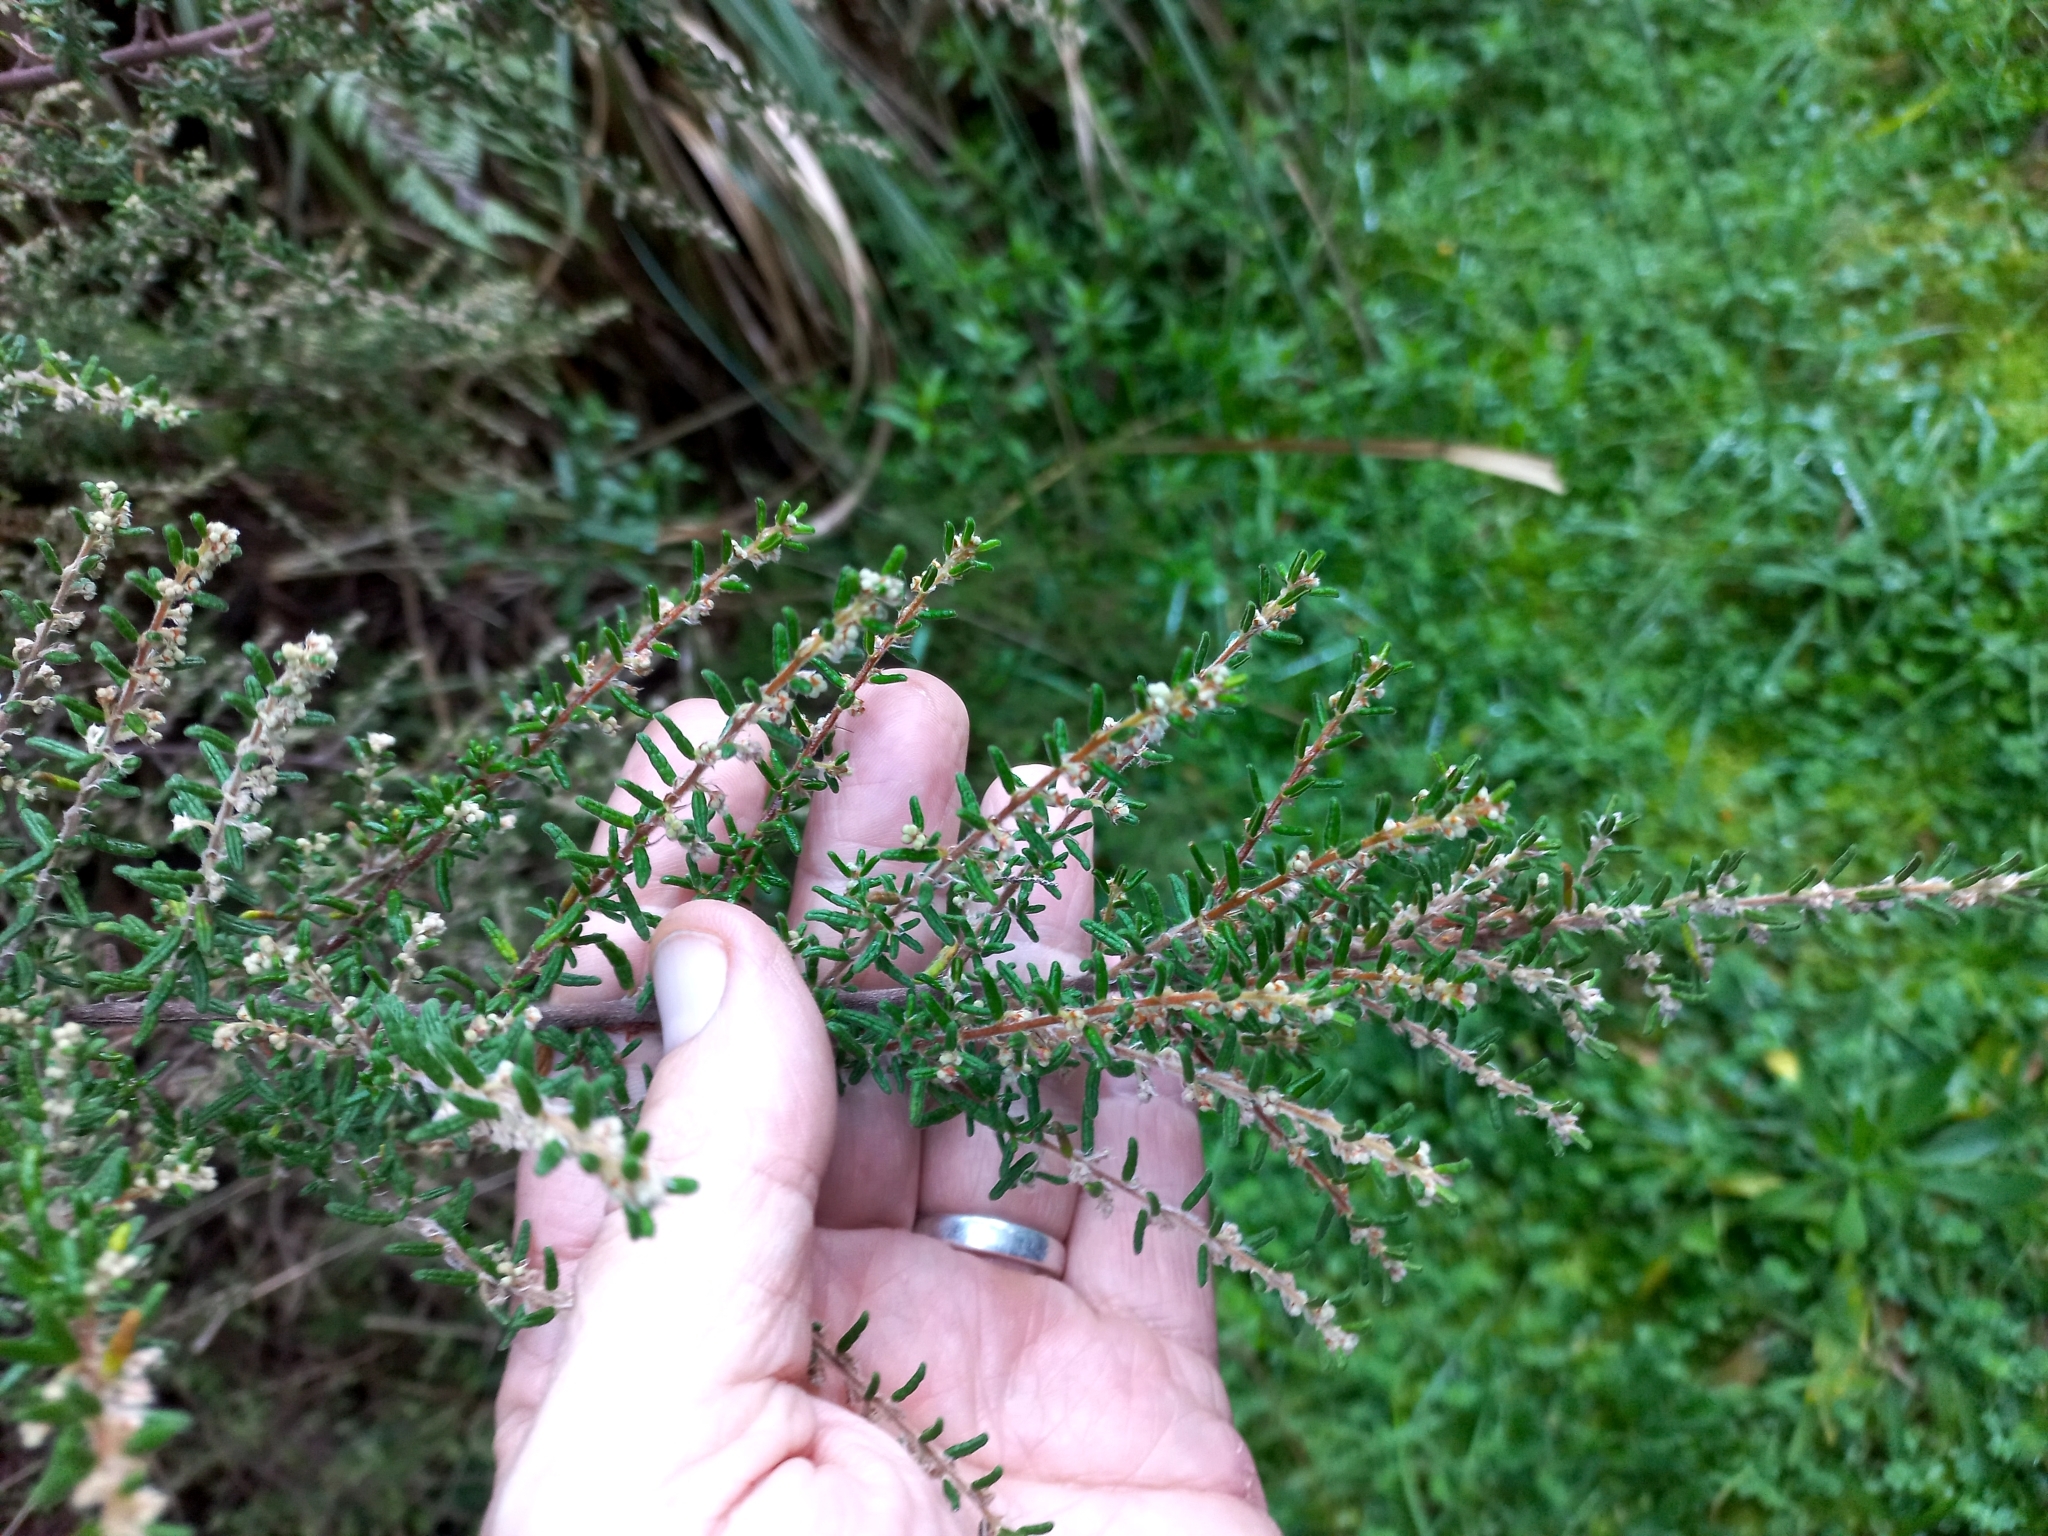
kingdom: Plantae
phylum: Tracheophyta
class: Magnoliopsida
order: Rosales
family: Rhamnaceae
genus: Pomaderris
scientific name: Pomaderris amoena
